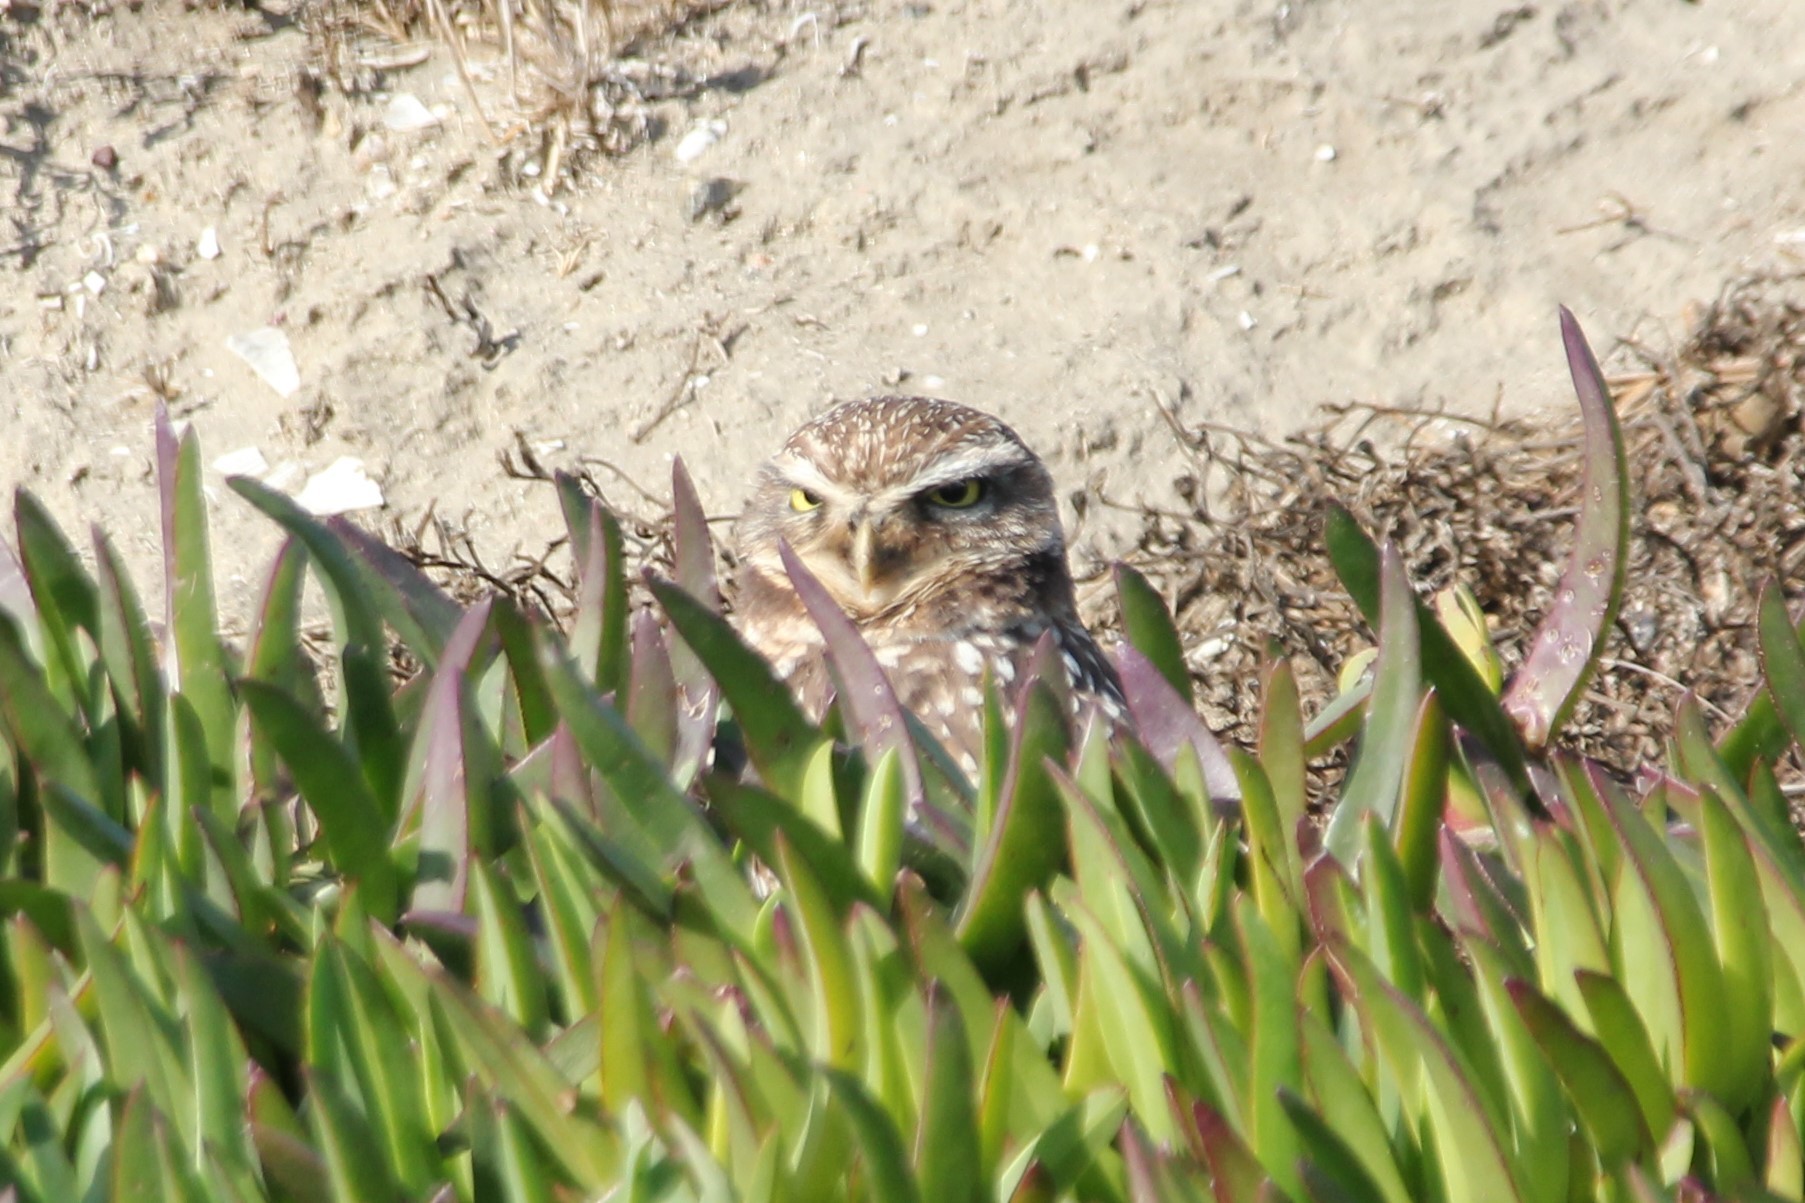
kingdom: Animalia
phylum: Chordata
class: Aves
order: Strigiformes
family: Strigidae
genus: Athene
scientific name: Athene cunicularia
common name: Burrowing owl
